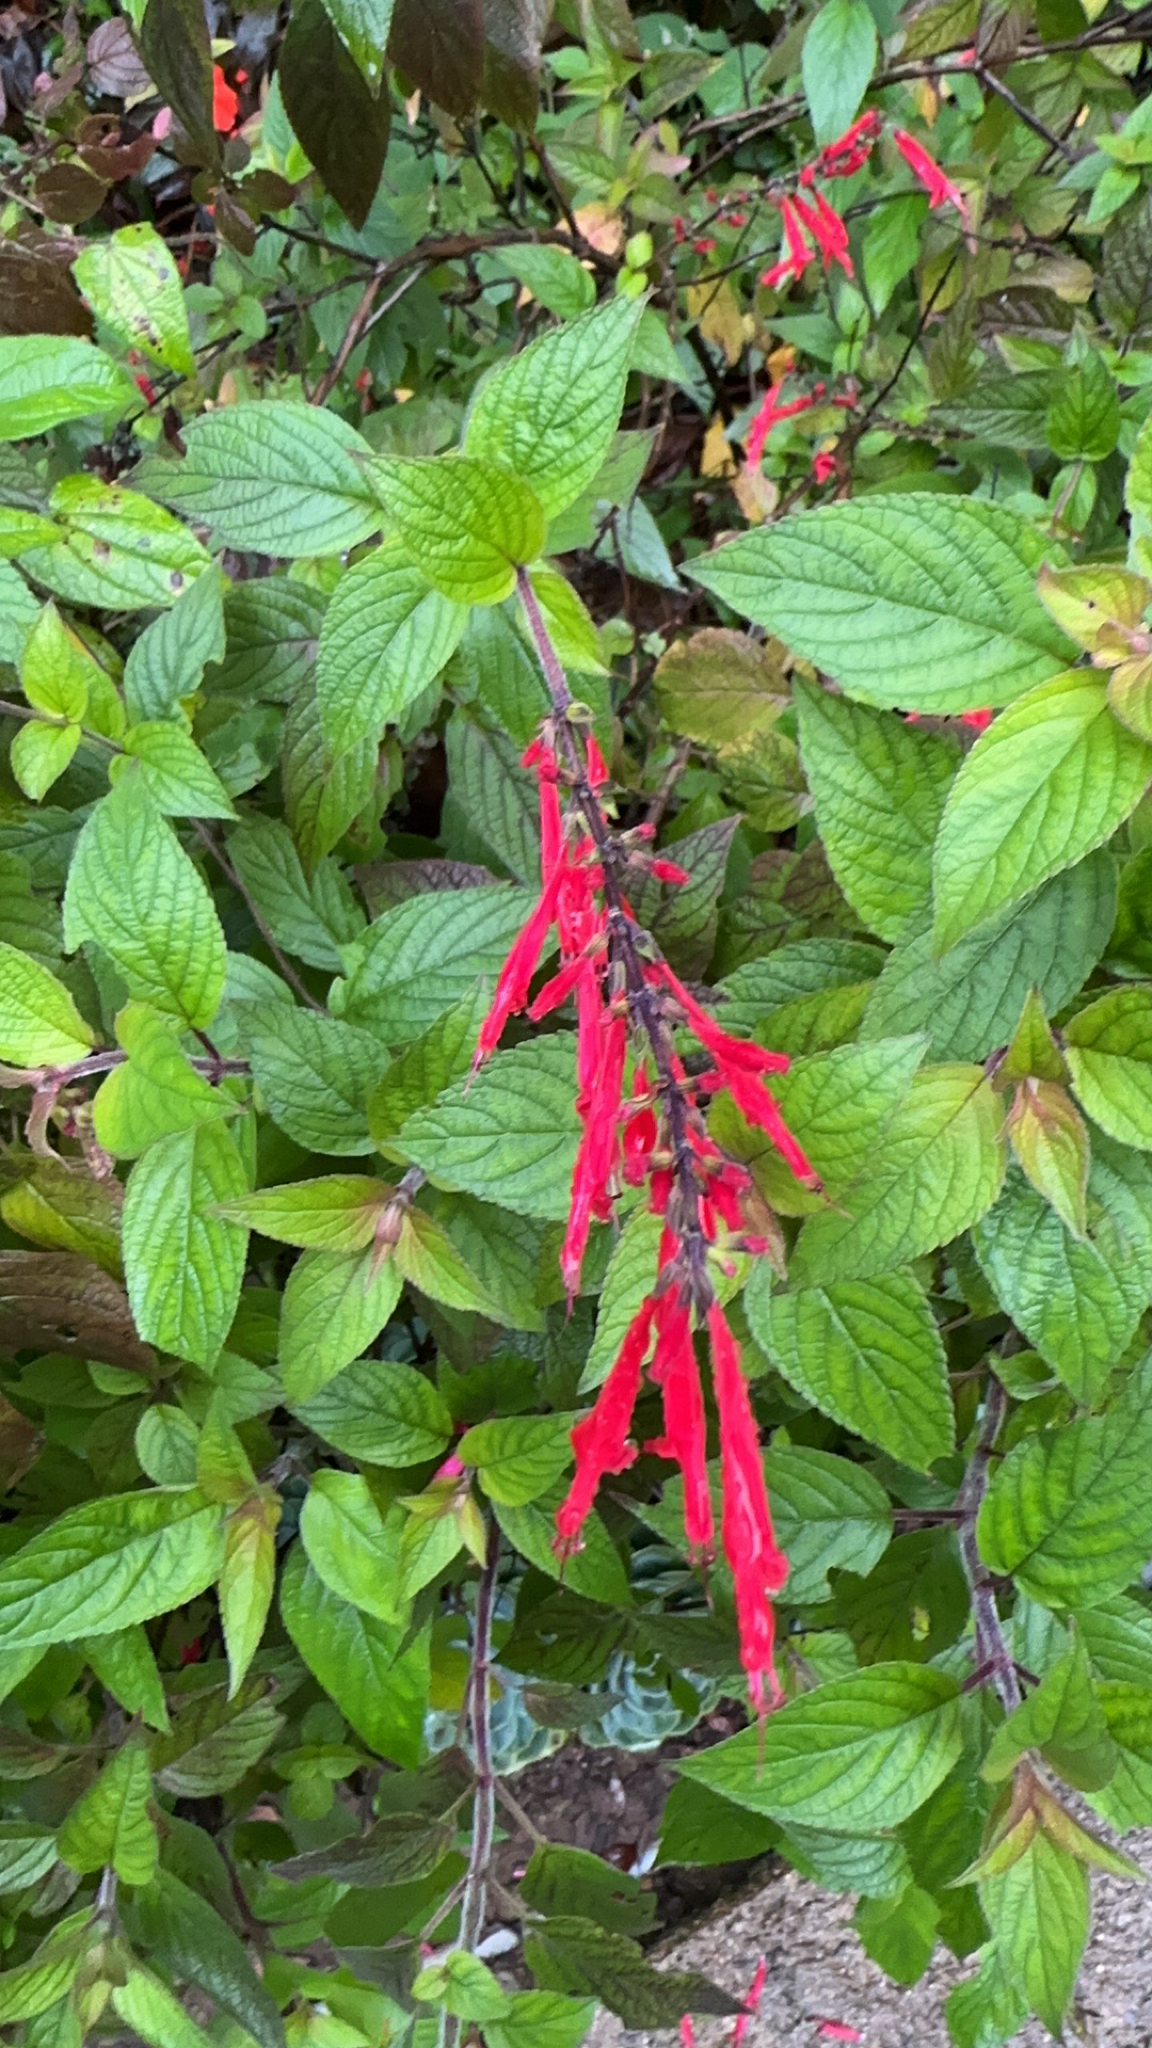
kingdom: Plantae
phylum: Tracheophyta
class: Magnoliopsida
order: Lamiales
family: Lamiaceae
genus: Salvia
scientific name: Salvia elegans
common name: Pineapple sage
